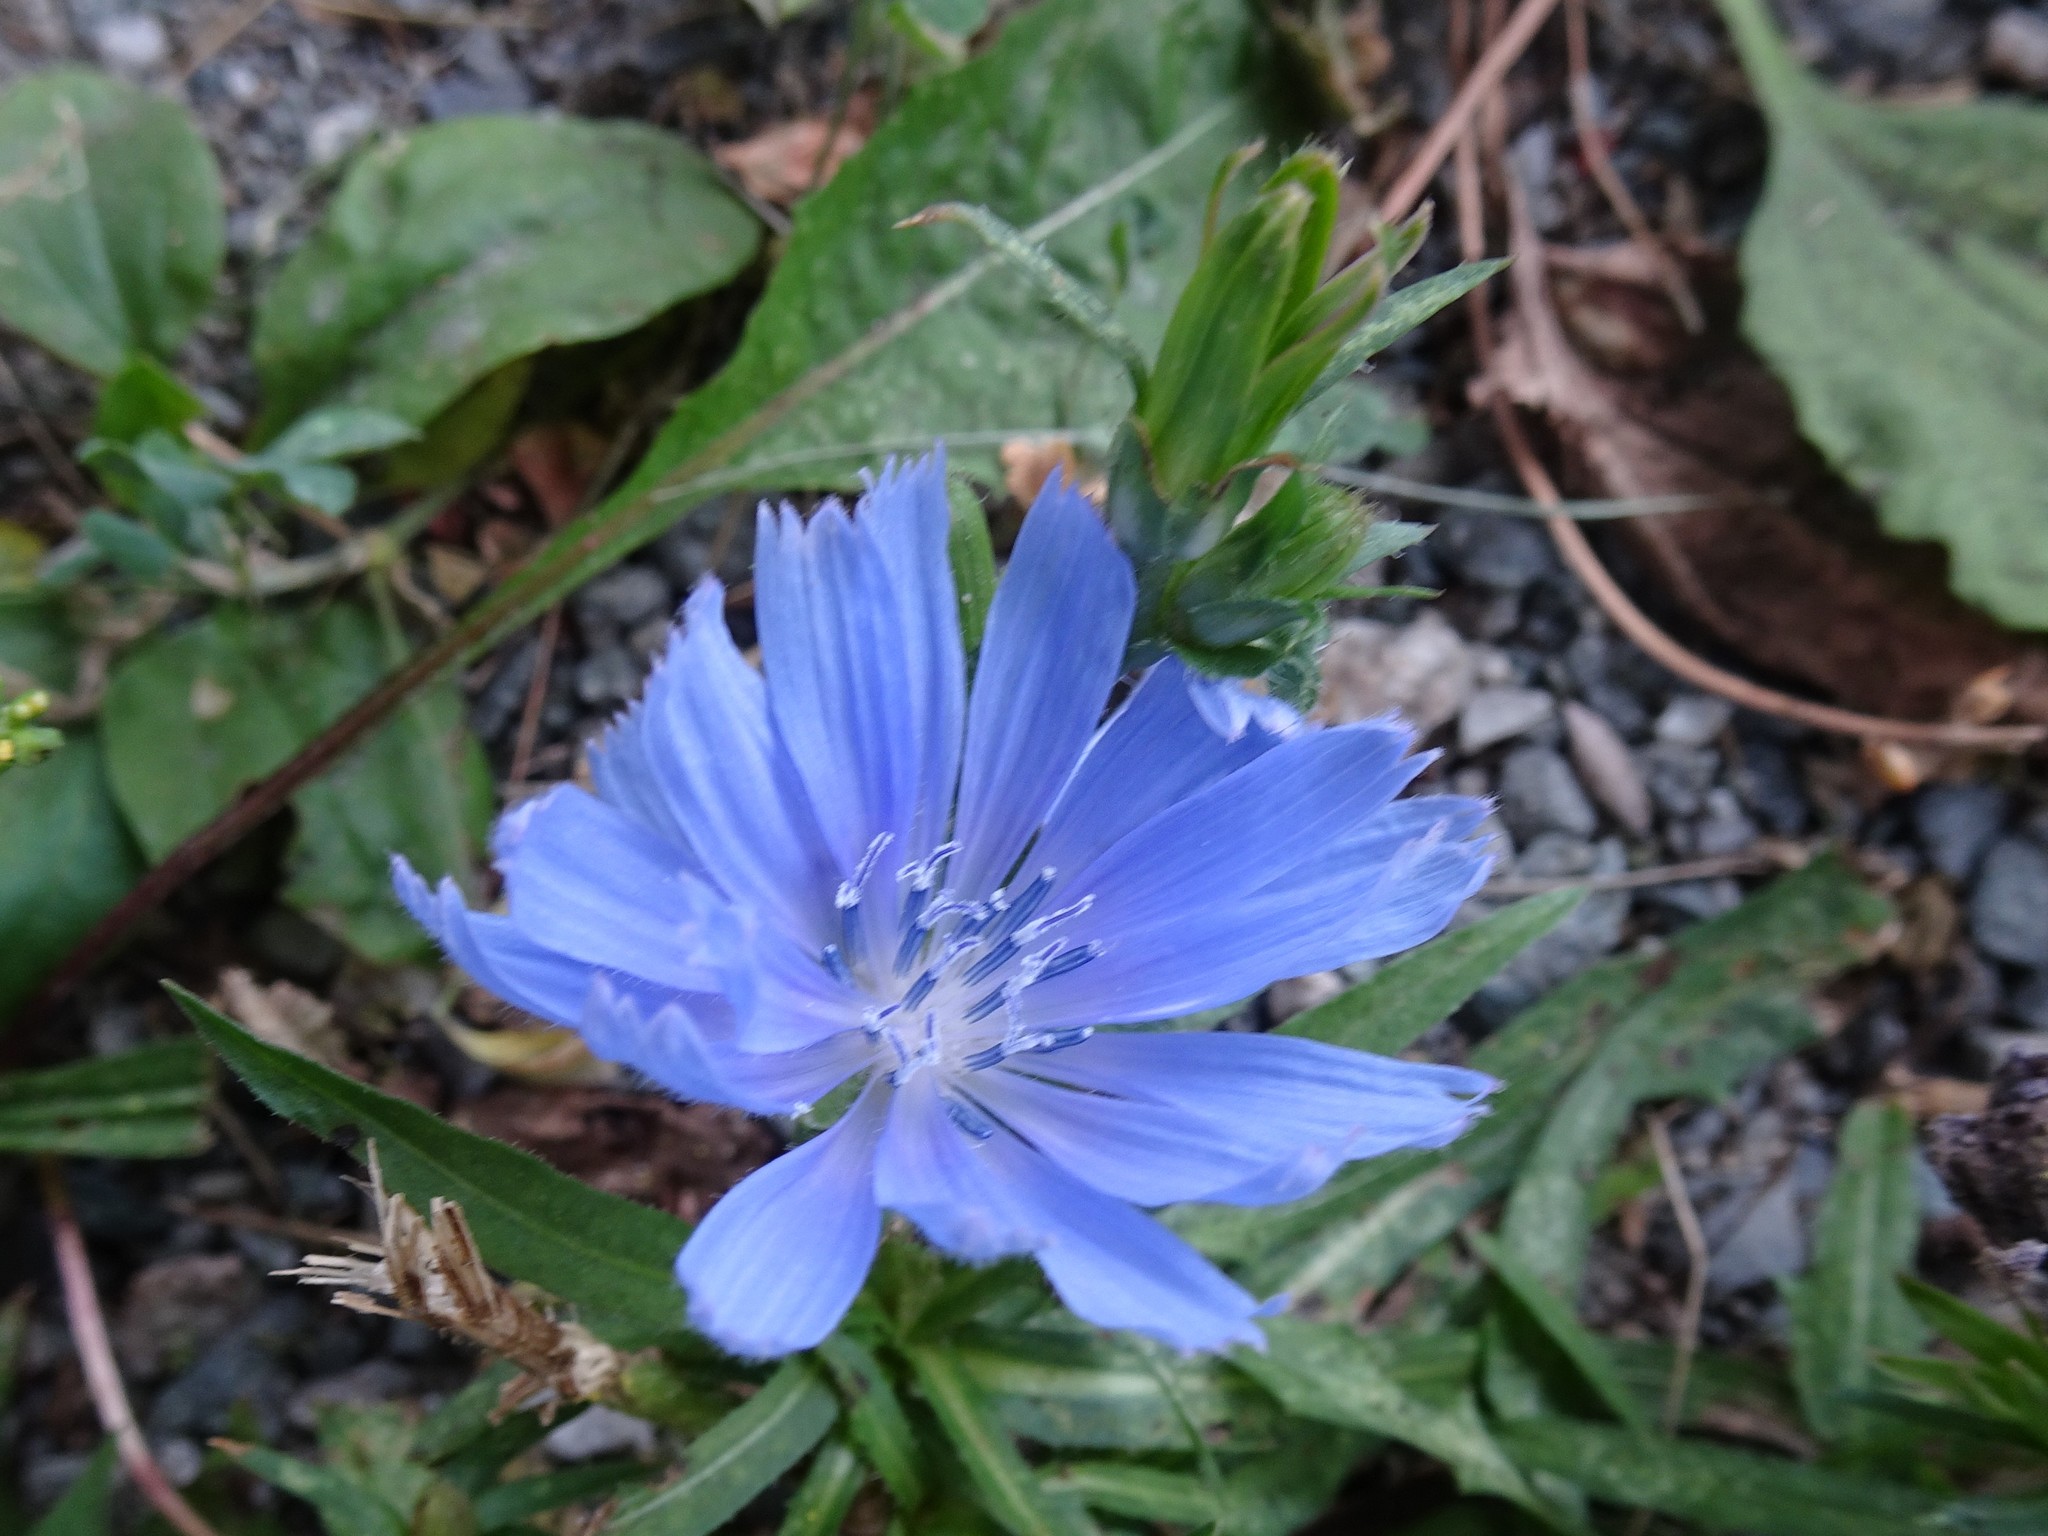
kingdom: Plantae
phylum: Tracheophyta
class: Magnoliopsida
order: Asterales
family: Asteraceae
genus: Cichorium
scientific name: Cichorium intybus
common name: Chicory
